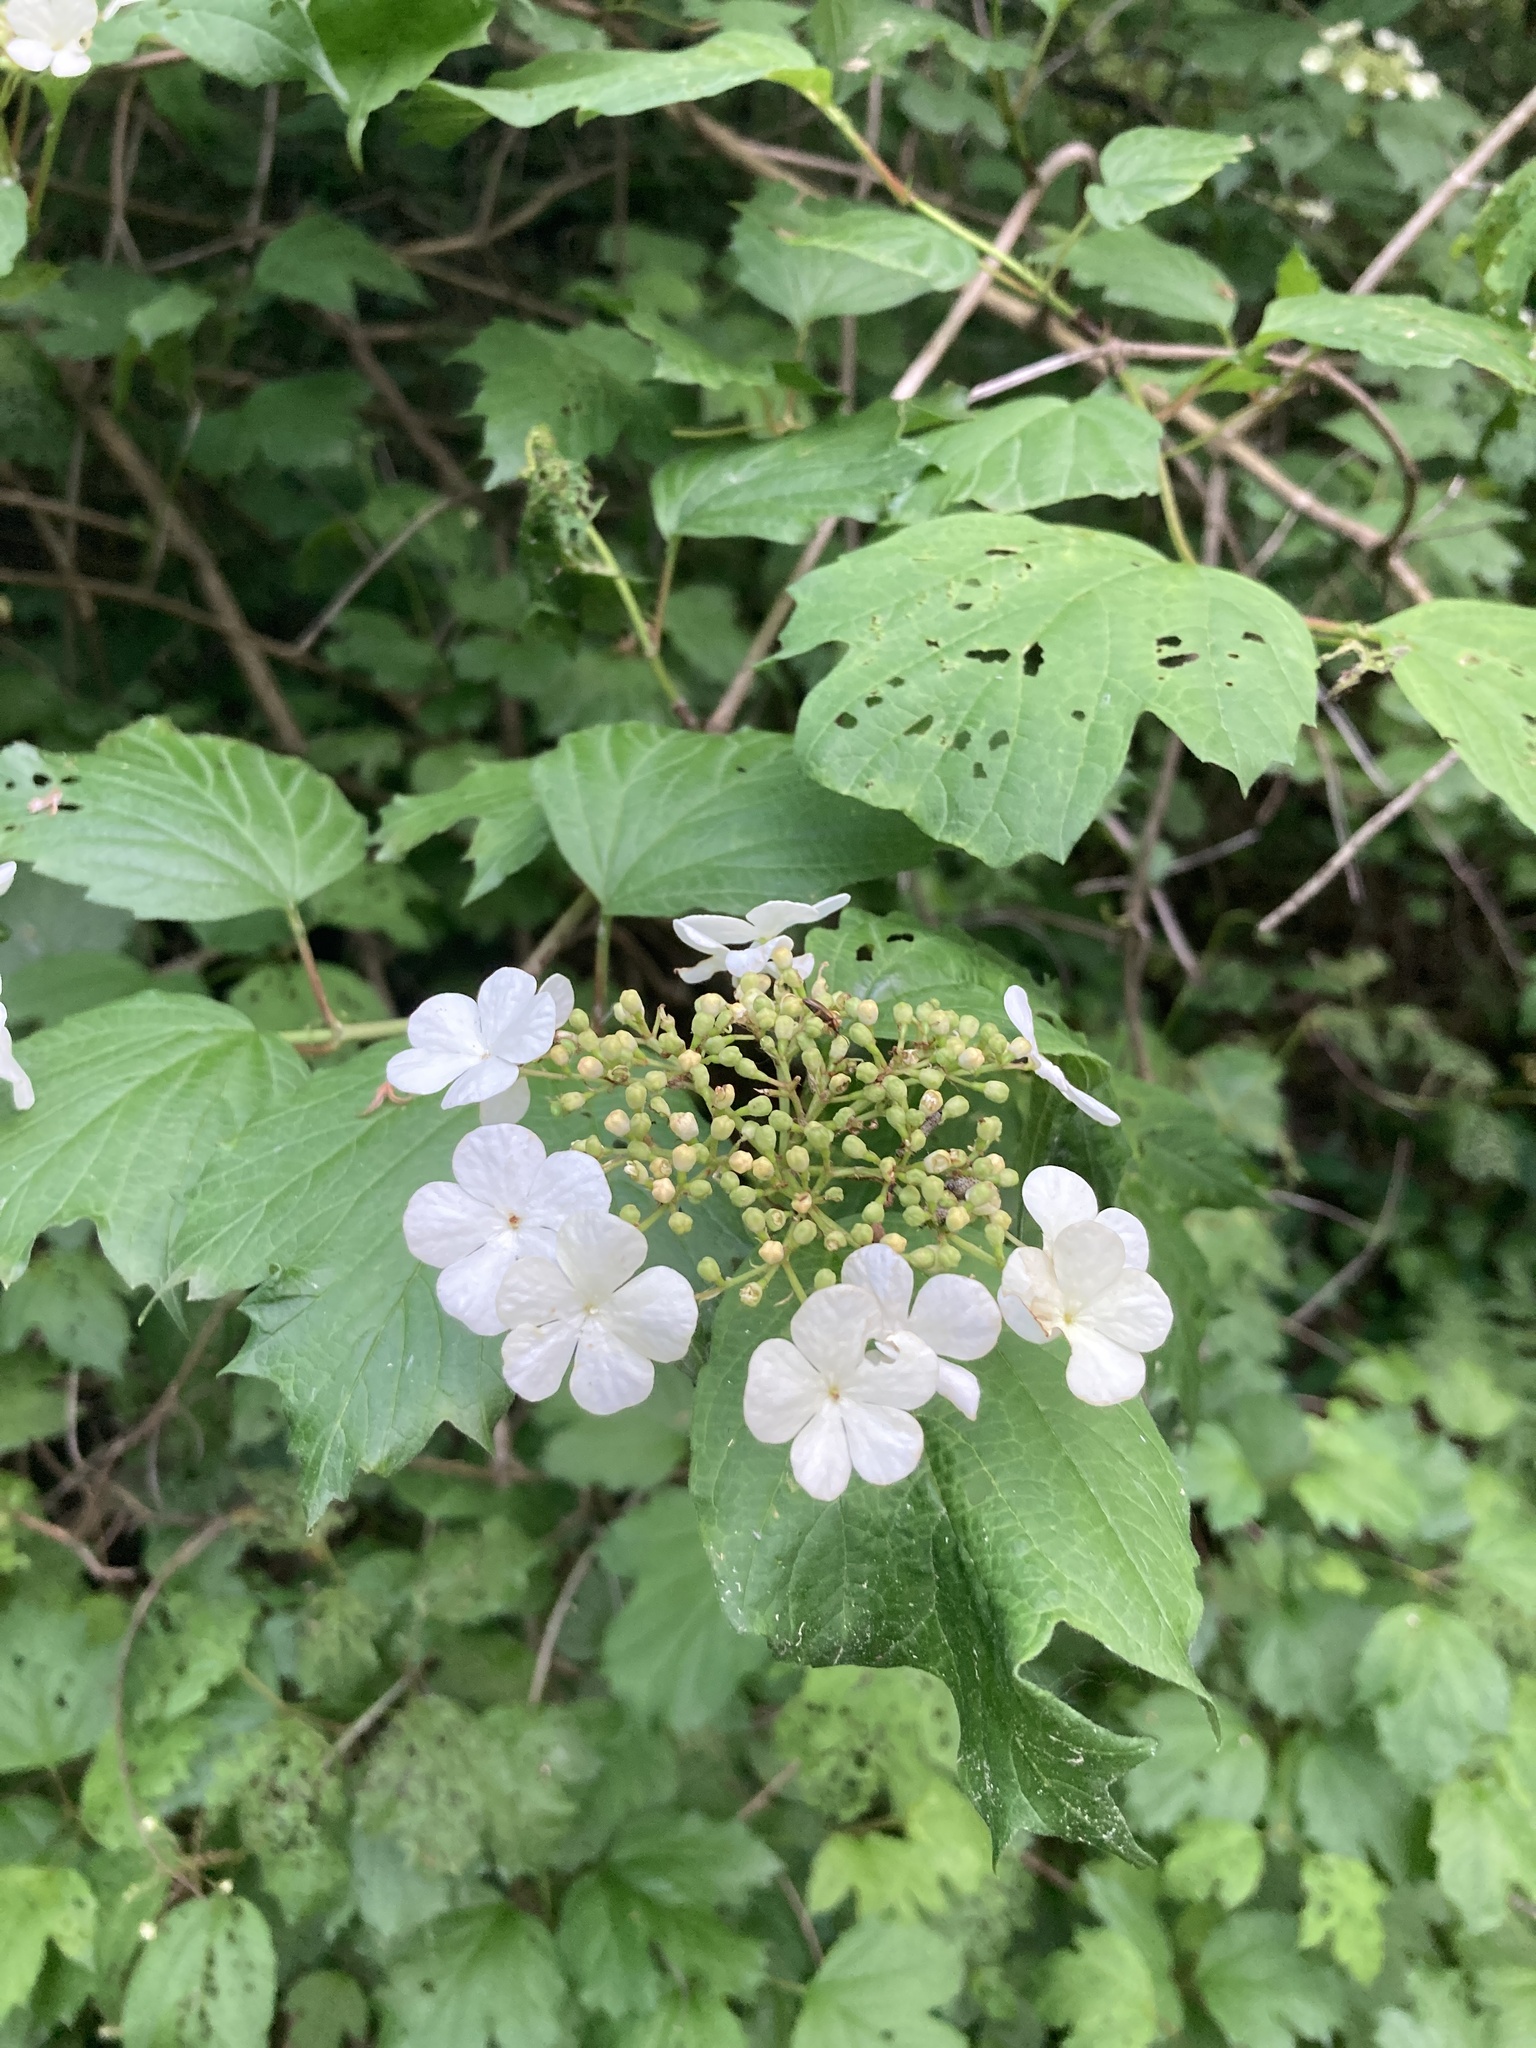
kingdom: Plantae
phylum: Tracheophyta
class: Magnoliopsida
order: Dipsacales
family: Viburnaceae
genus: Viburnum
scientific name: Viburnum opulus
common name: Guelder-rose
